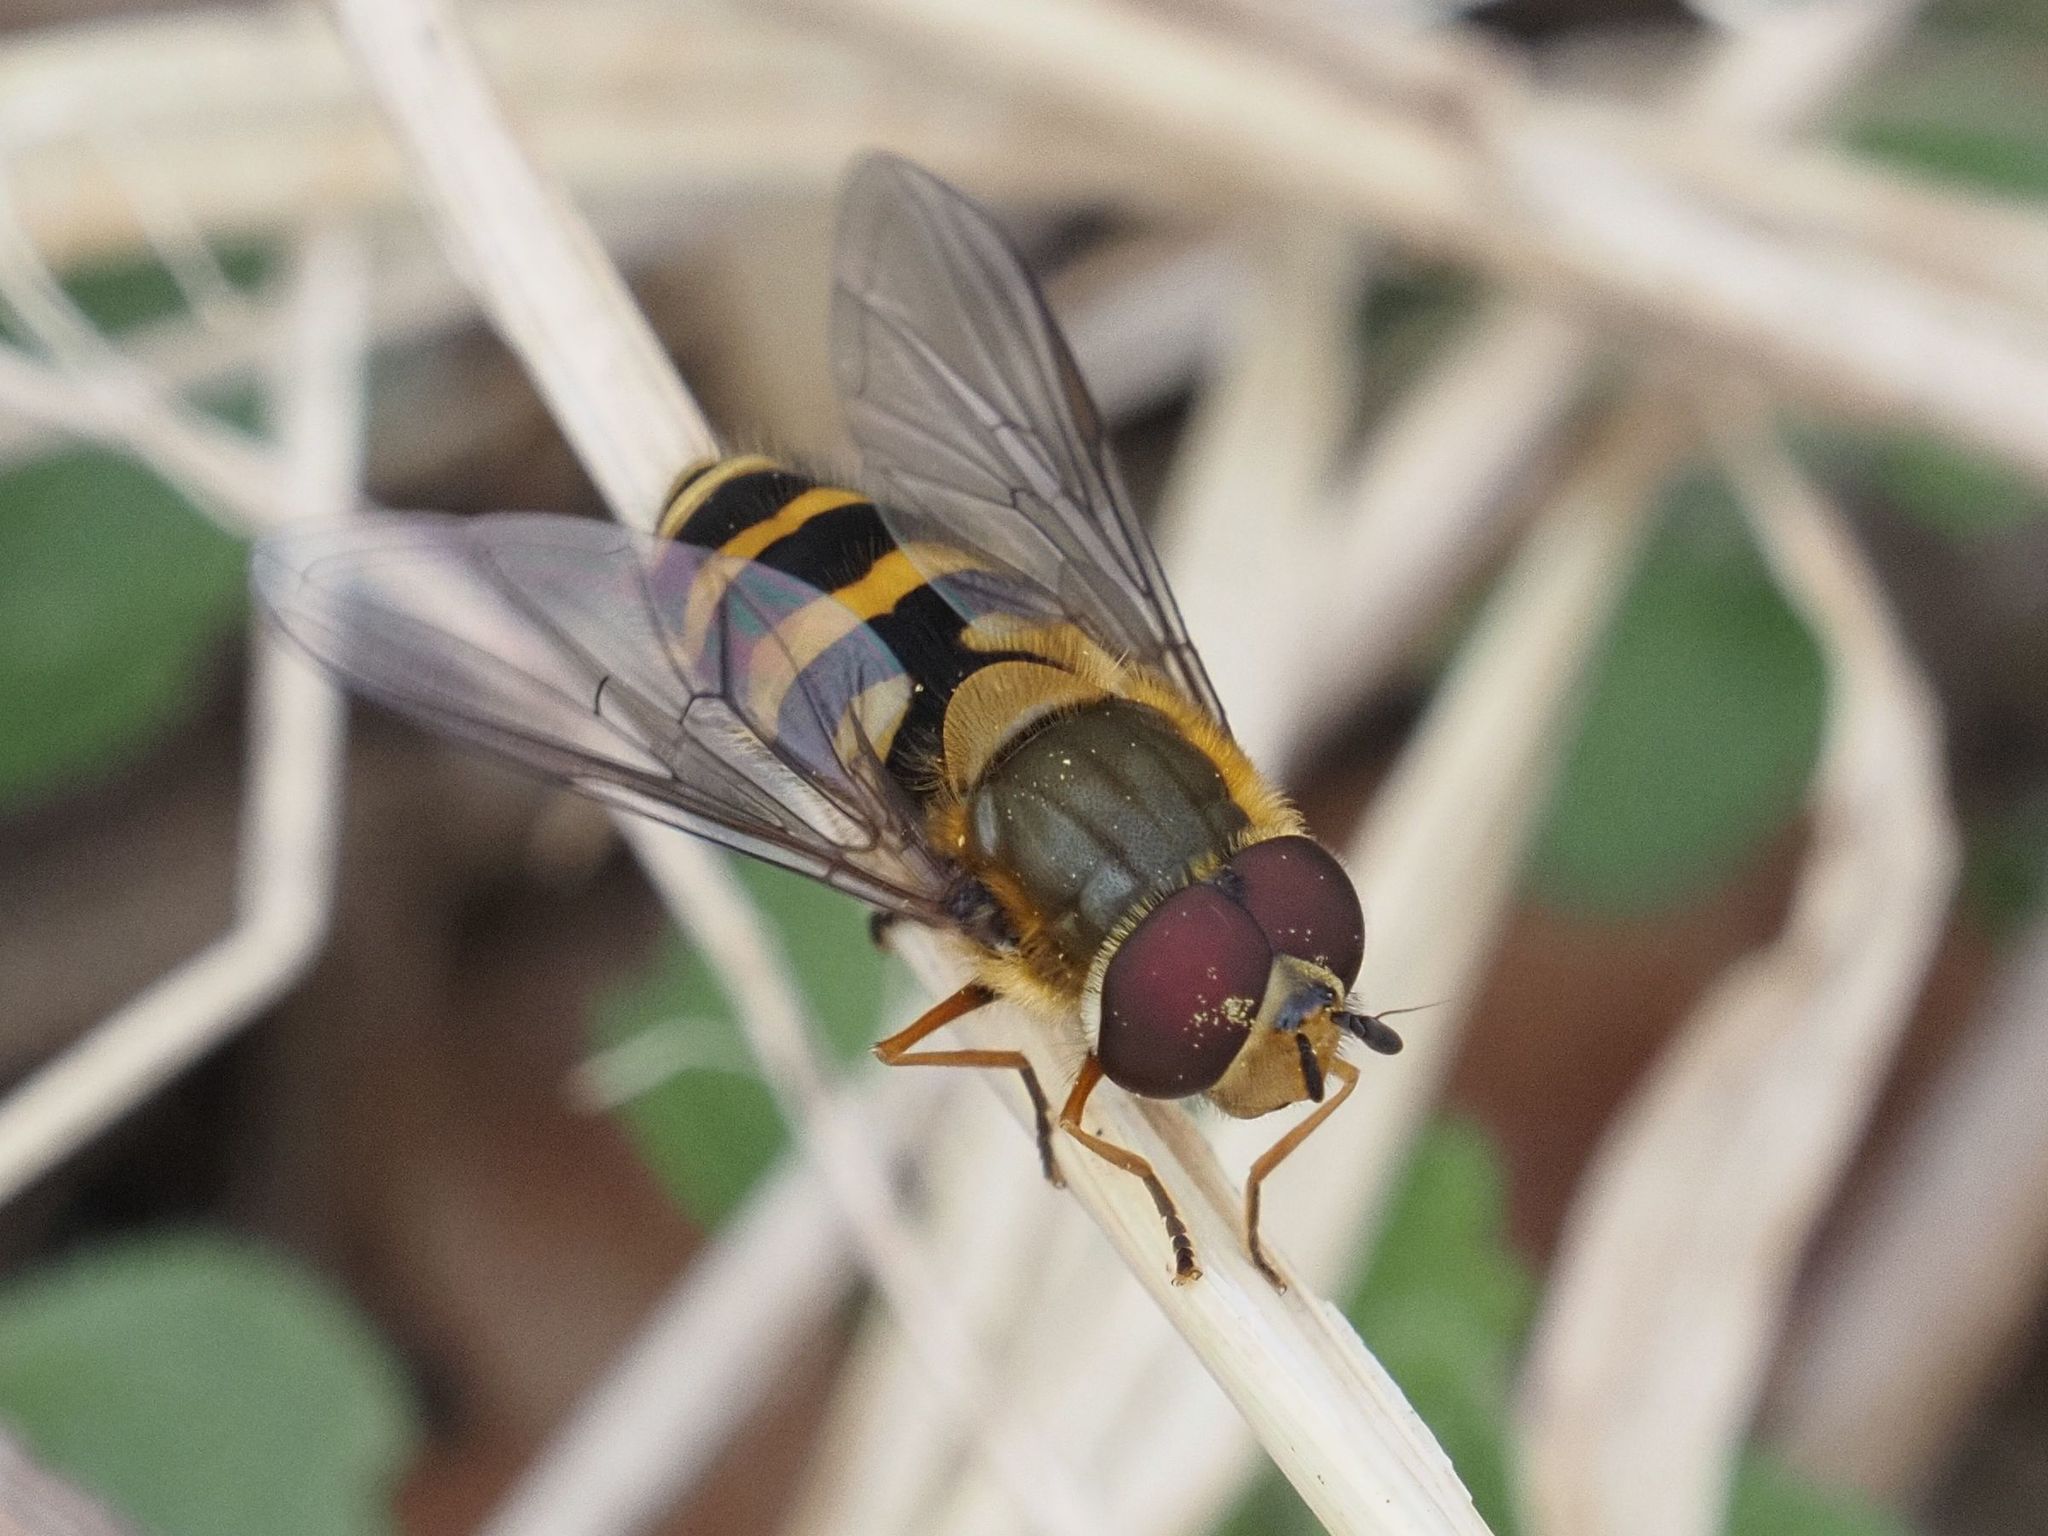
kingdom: Animalia
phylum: Arthropoda
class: Insecta
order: Diptera
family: Syrphidae
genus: Syrphus
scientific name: Syrphus torvus
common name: Hairy-eyed flower fly
